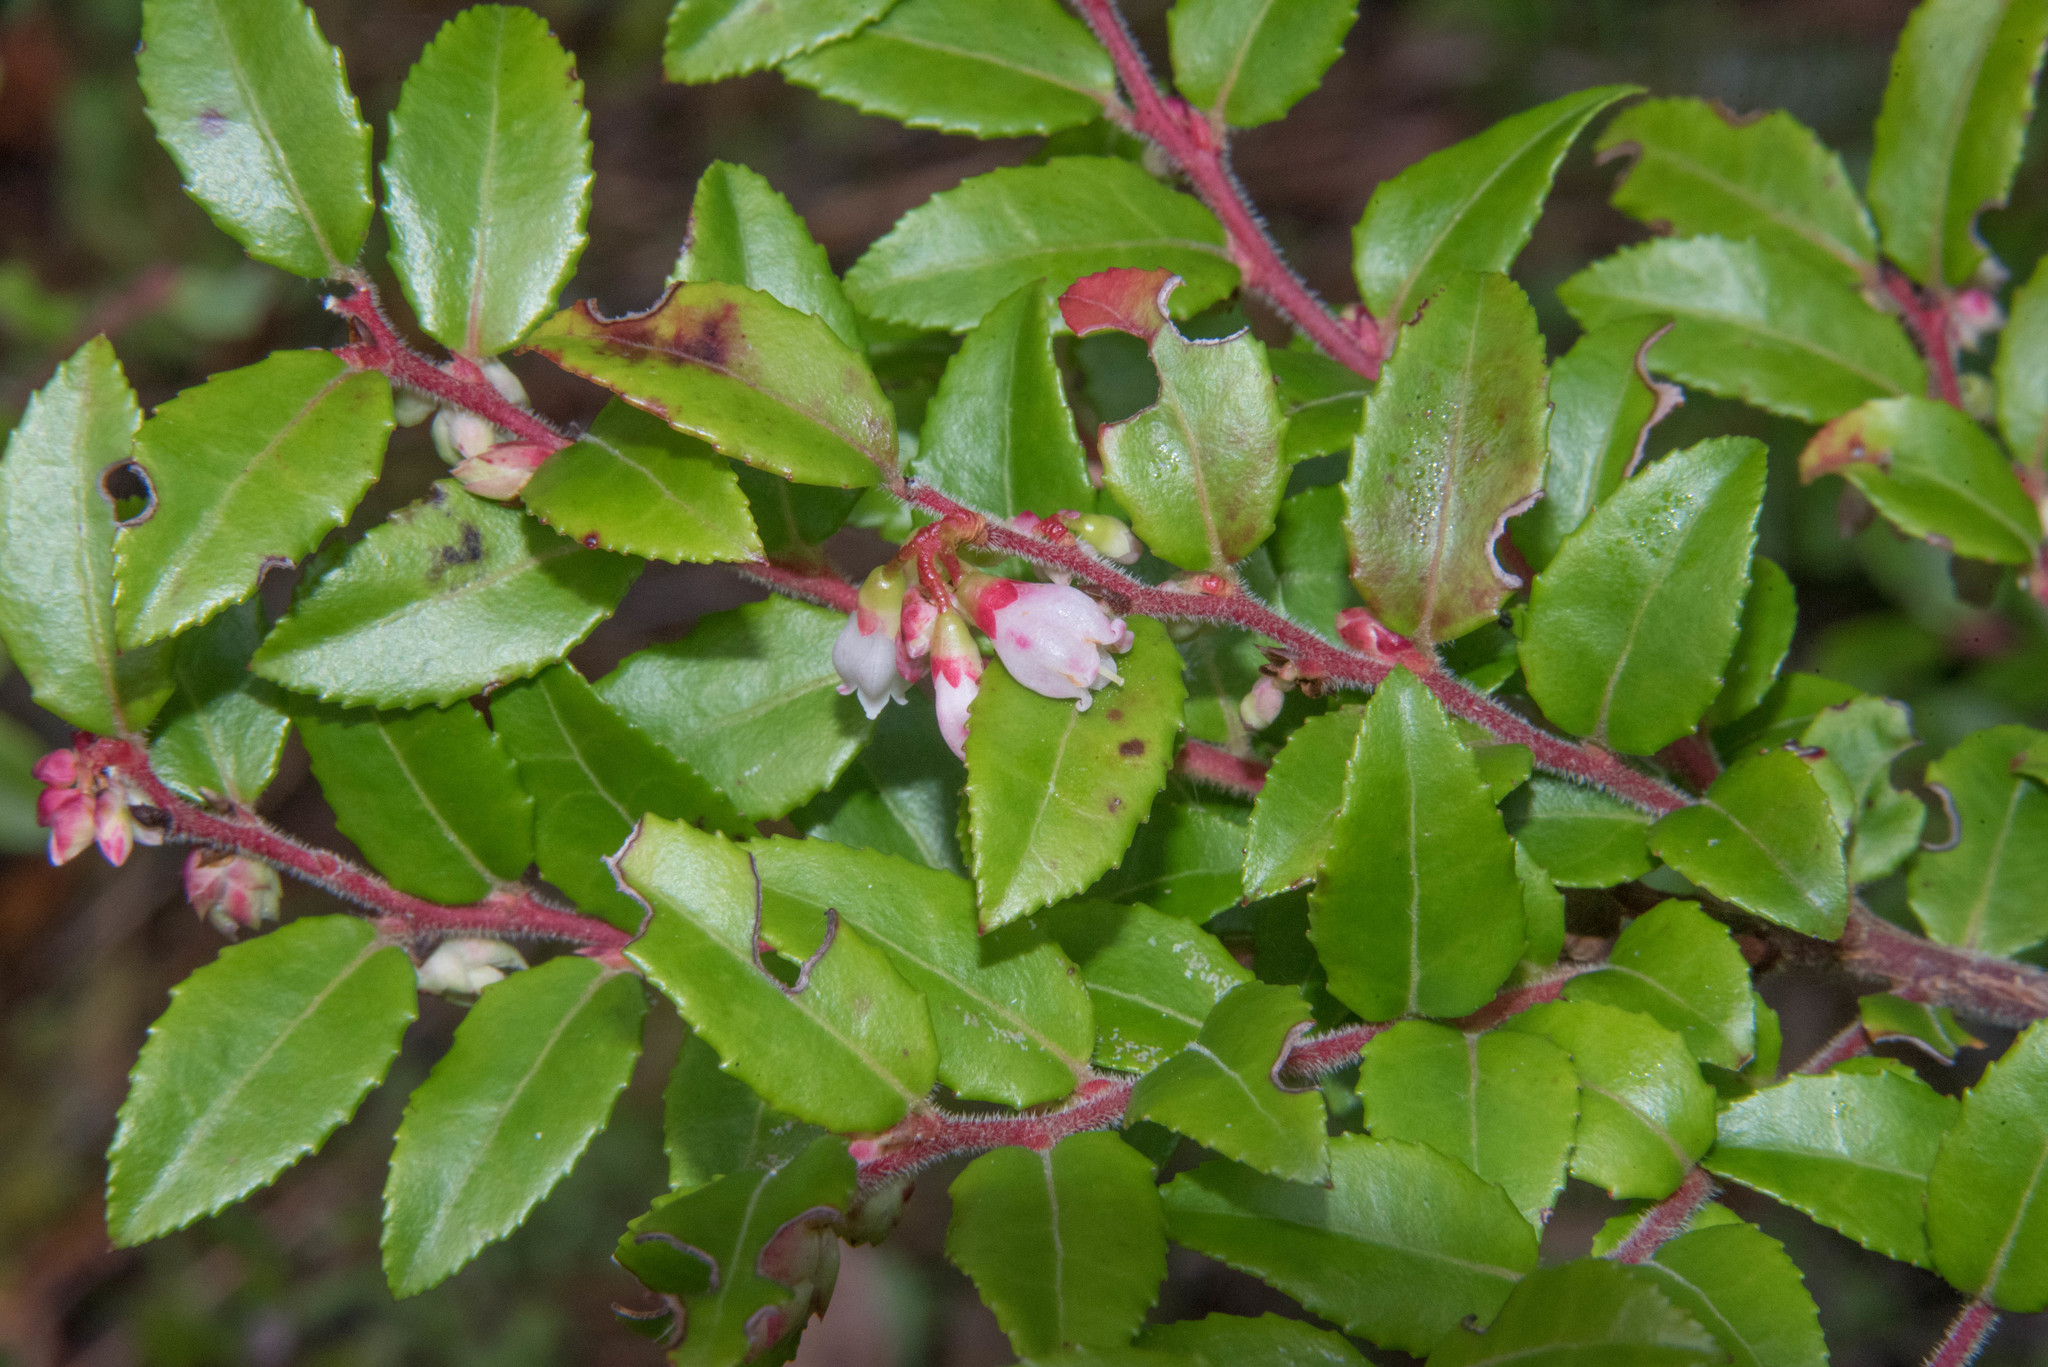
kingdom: Plantae
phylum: Tracheophyta
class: Magnoliopsida
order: Ericales
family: Ericaceae
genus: Vaccinium
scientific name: Vaccinium ovatum
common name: California-huckleberry
